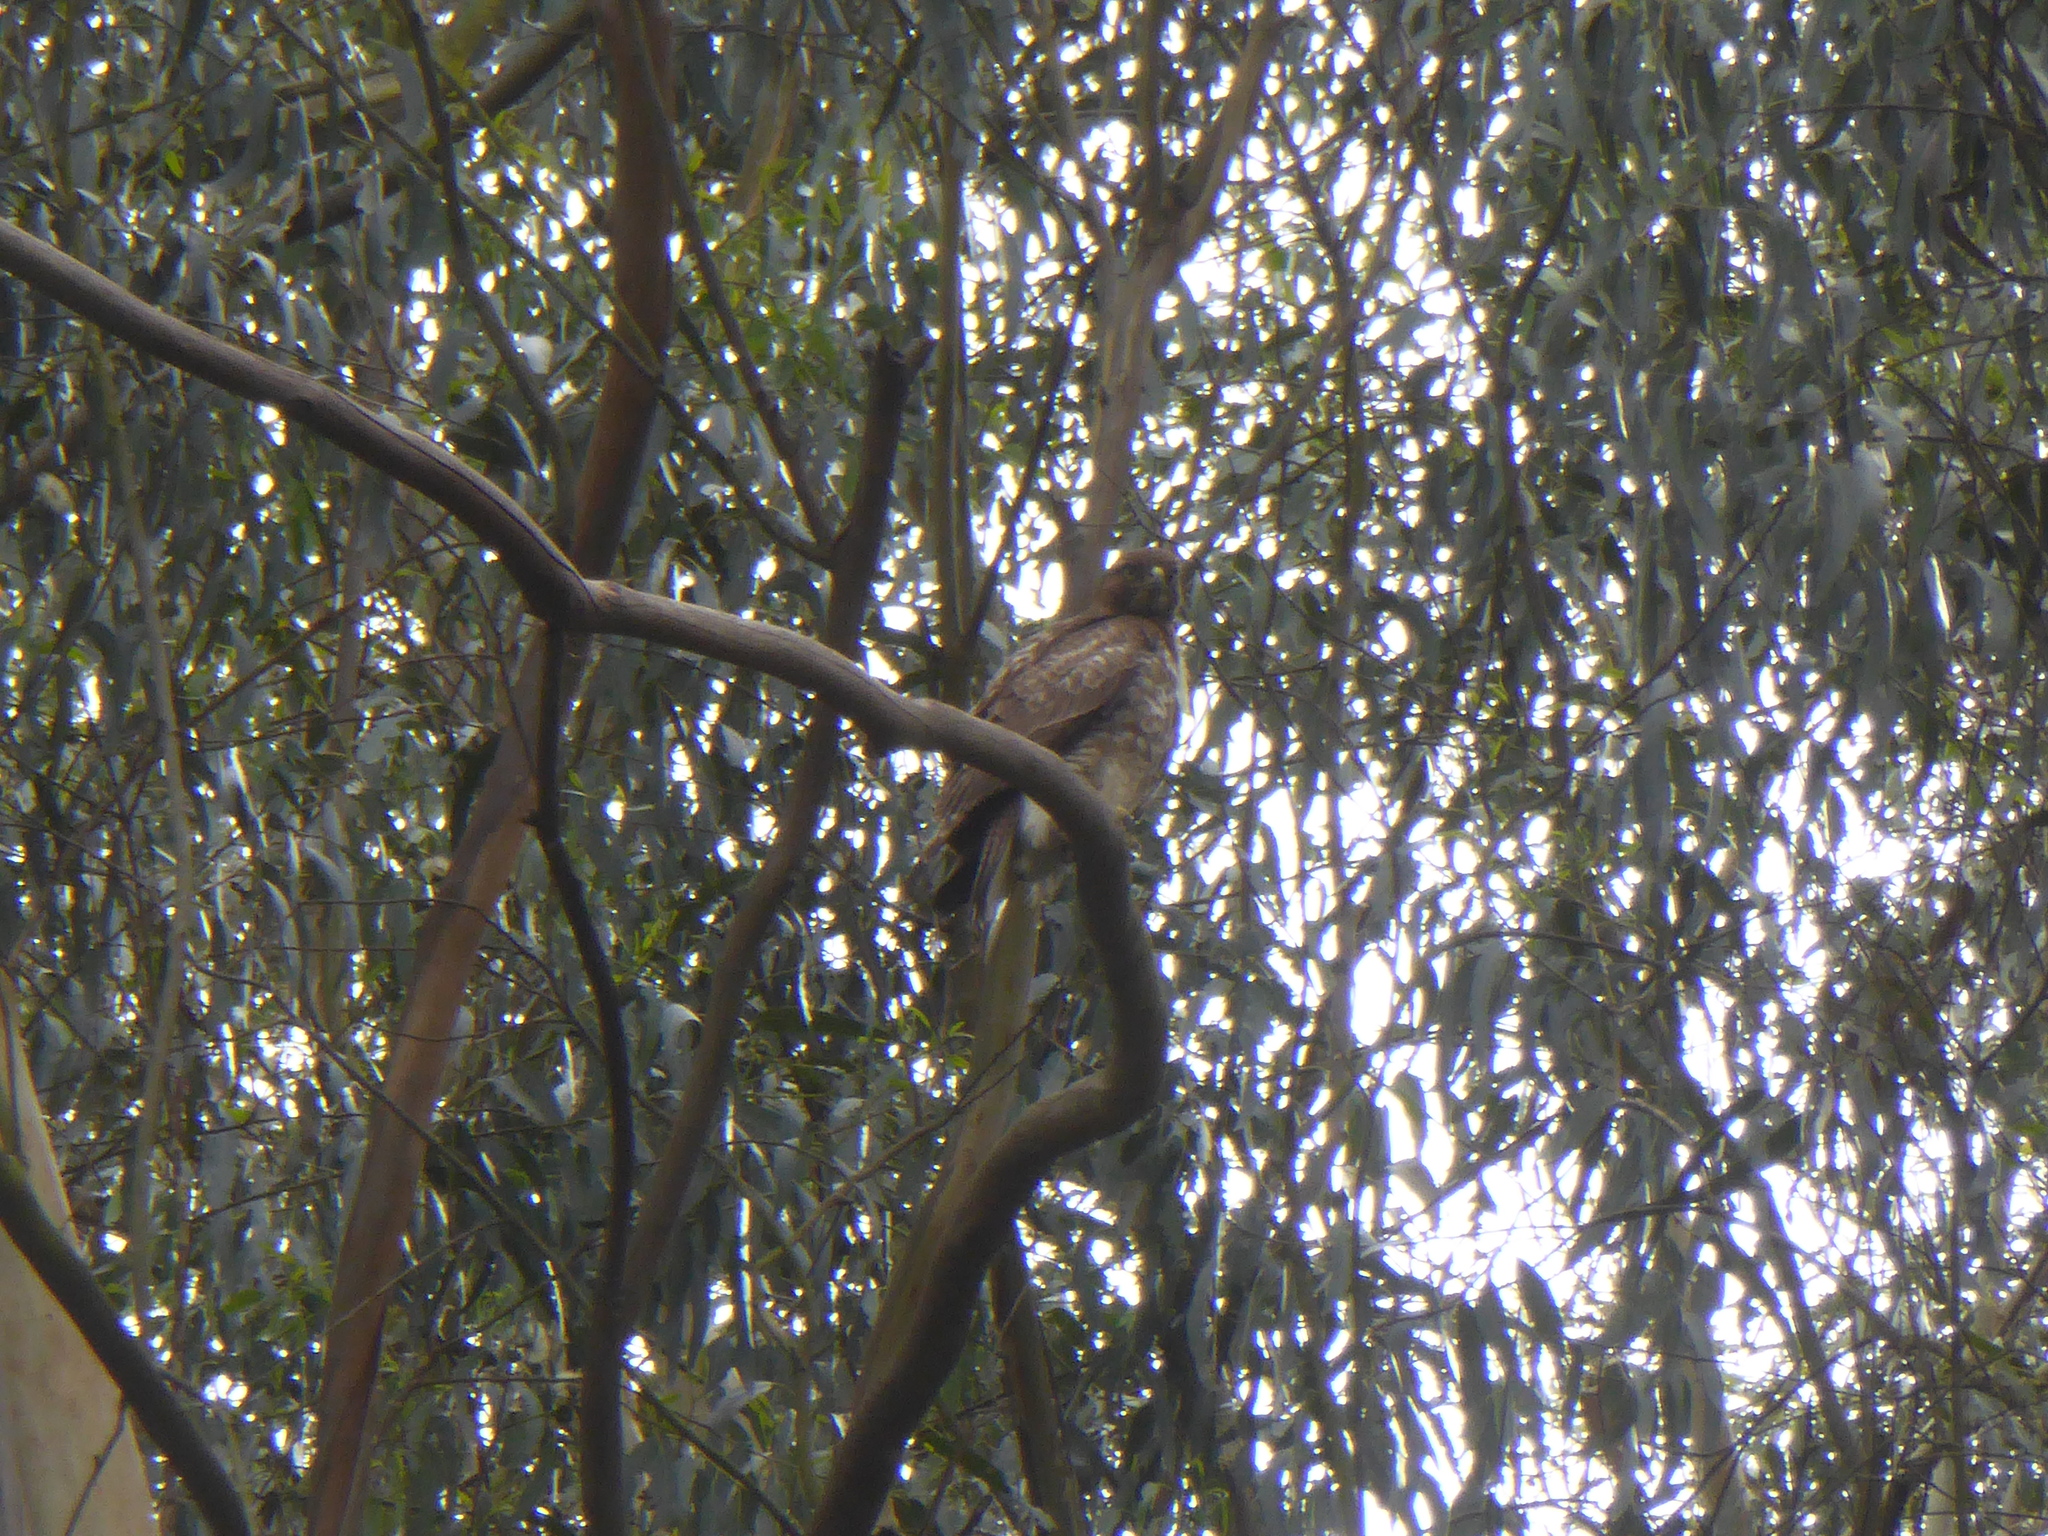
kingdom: Animalia
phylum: Chordata
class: Aves
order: Accipitriformes
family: Accipitridae
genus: Buteo
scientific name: Buteo jamaicensis
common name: Red-tailed hawk
